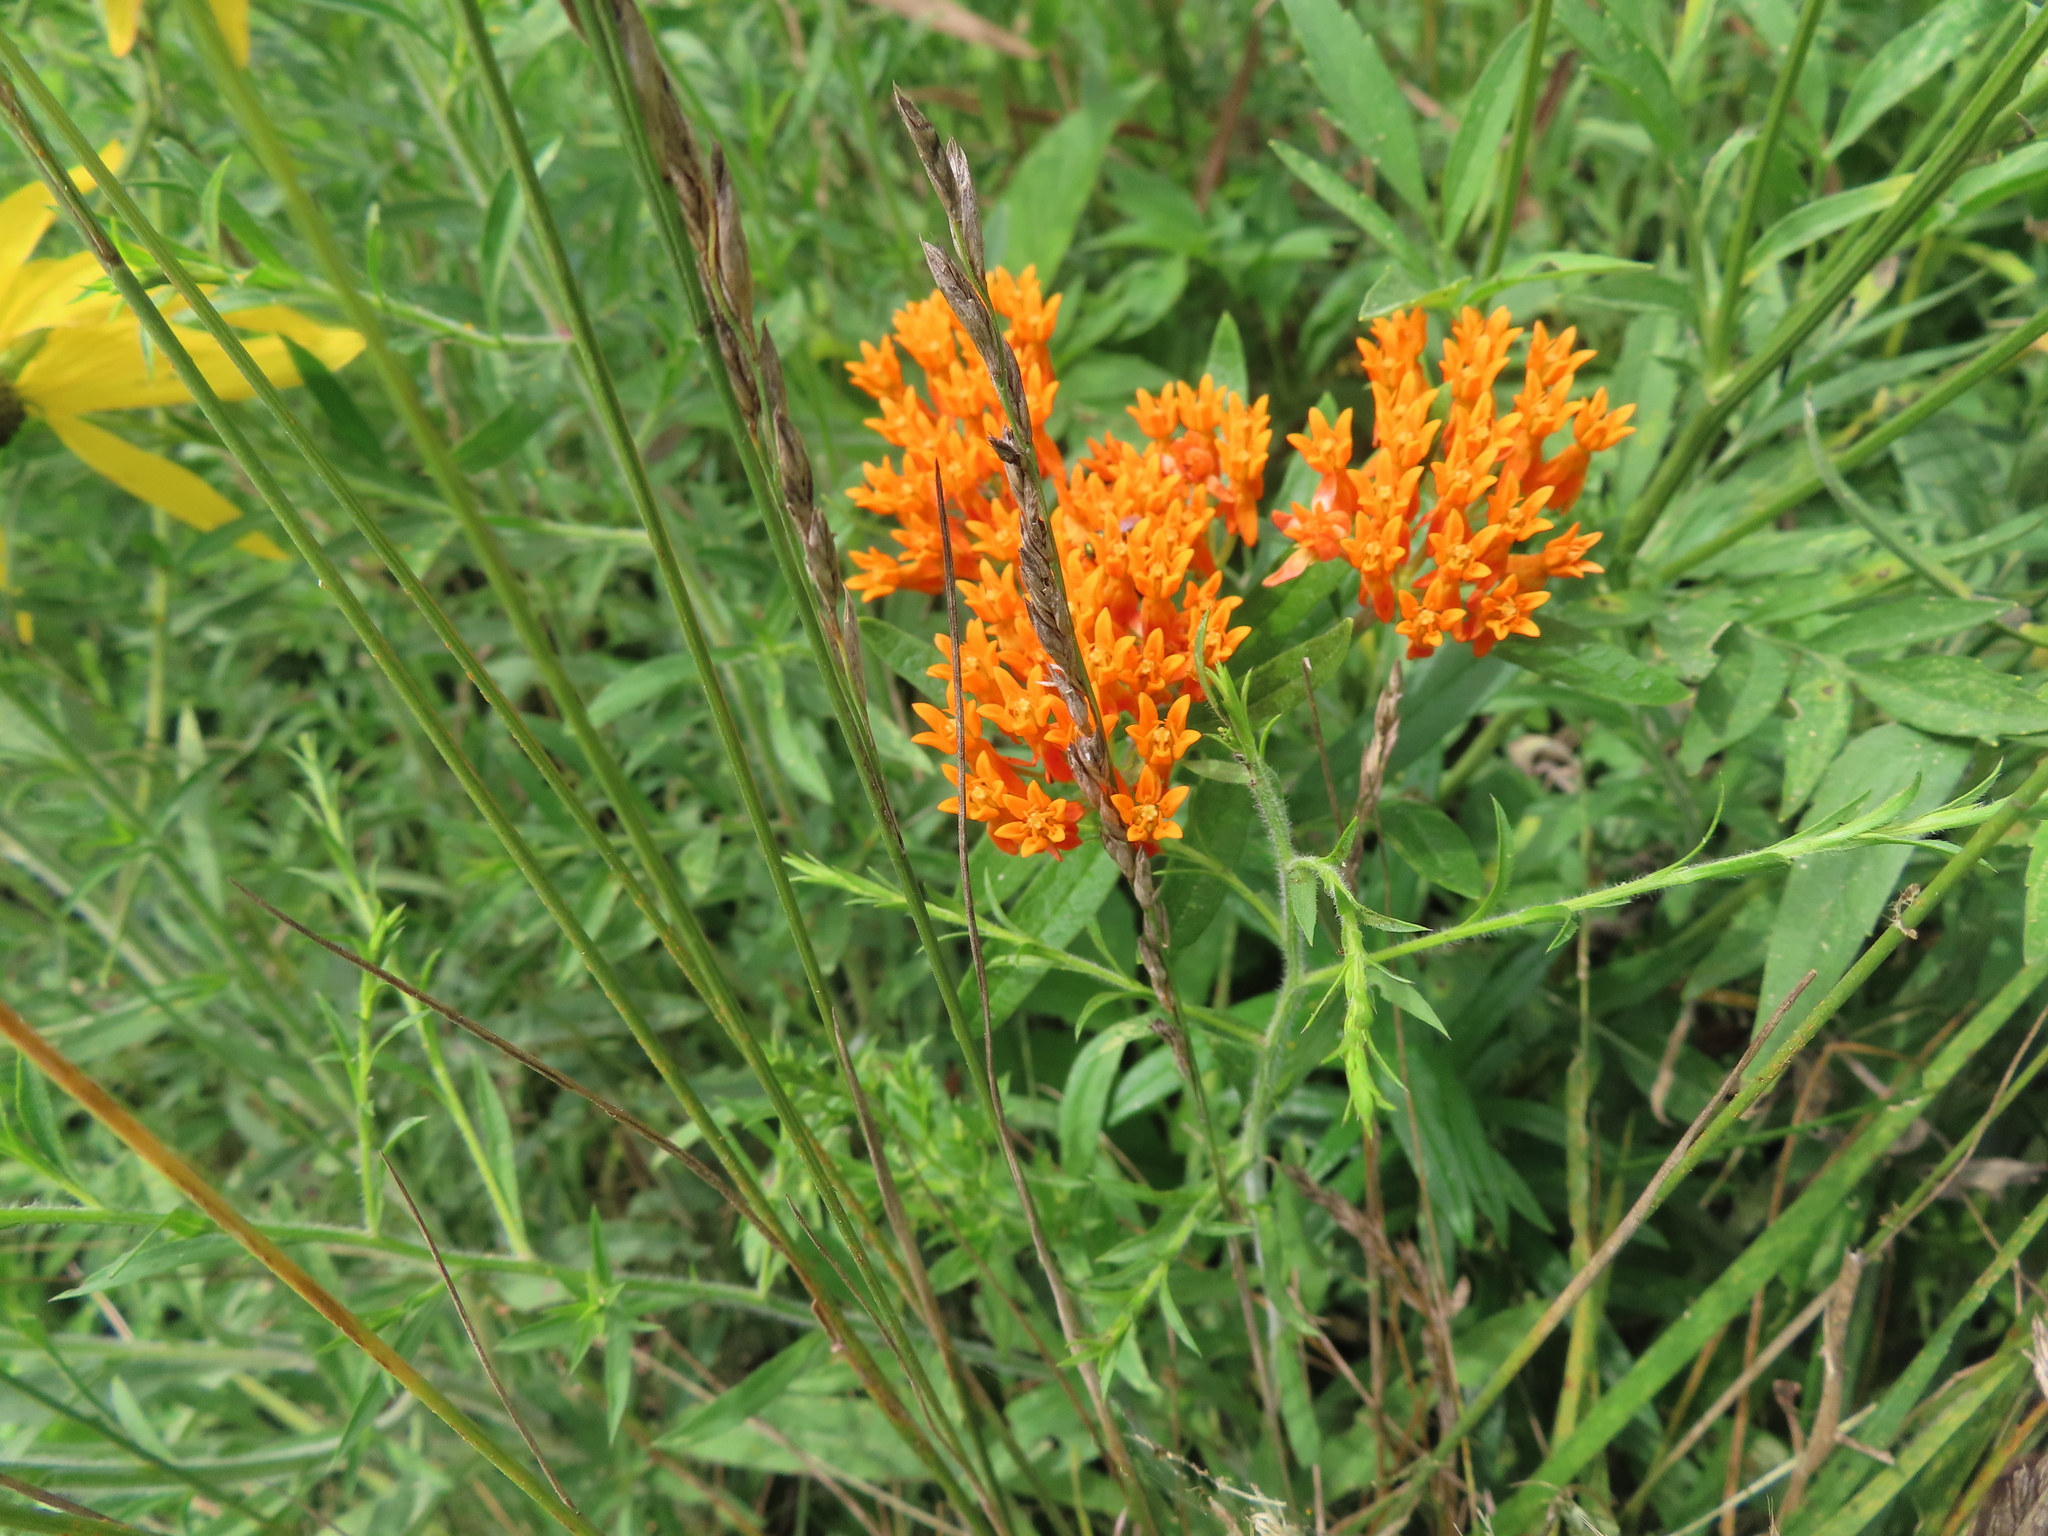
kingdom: Plantae
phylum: Tracheophyta
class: Magnoliopsida
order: Gentianales
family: Apocynaceae
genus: Asclepias
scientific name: Asclepias tuberosa
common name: Butterfly milkweed
